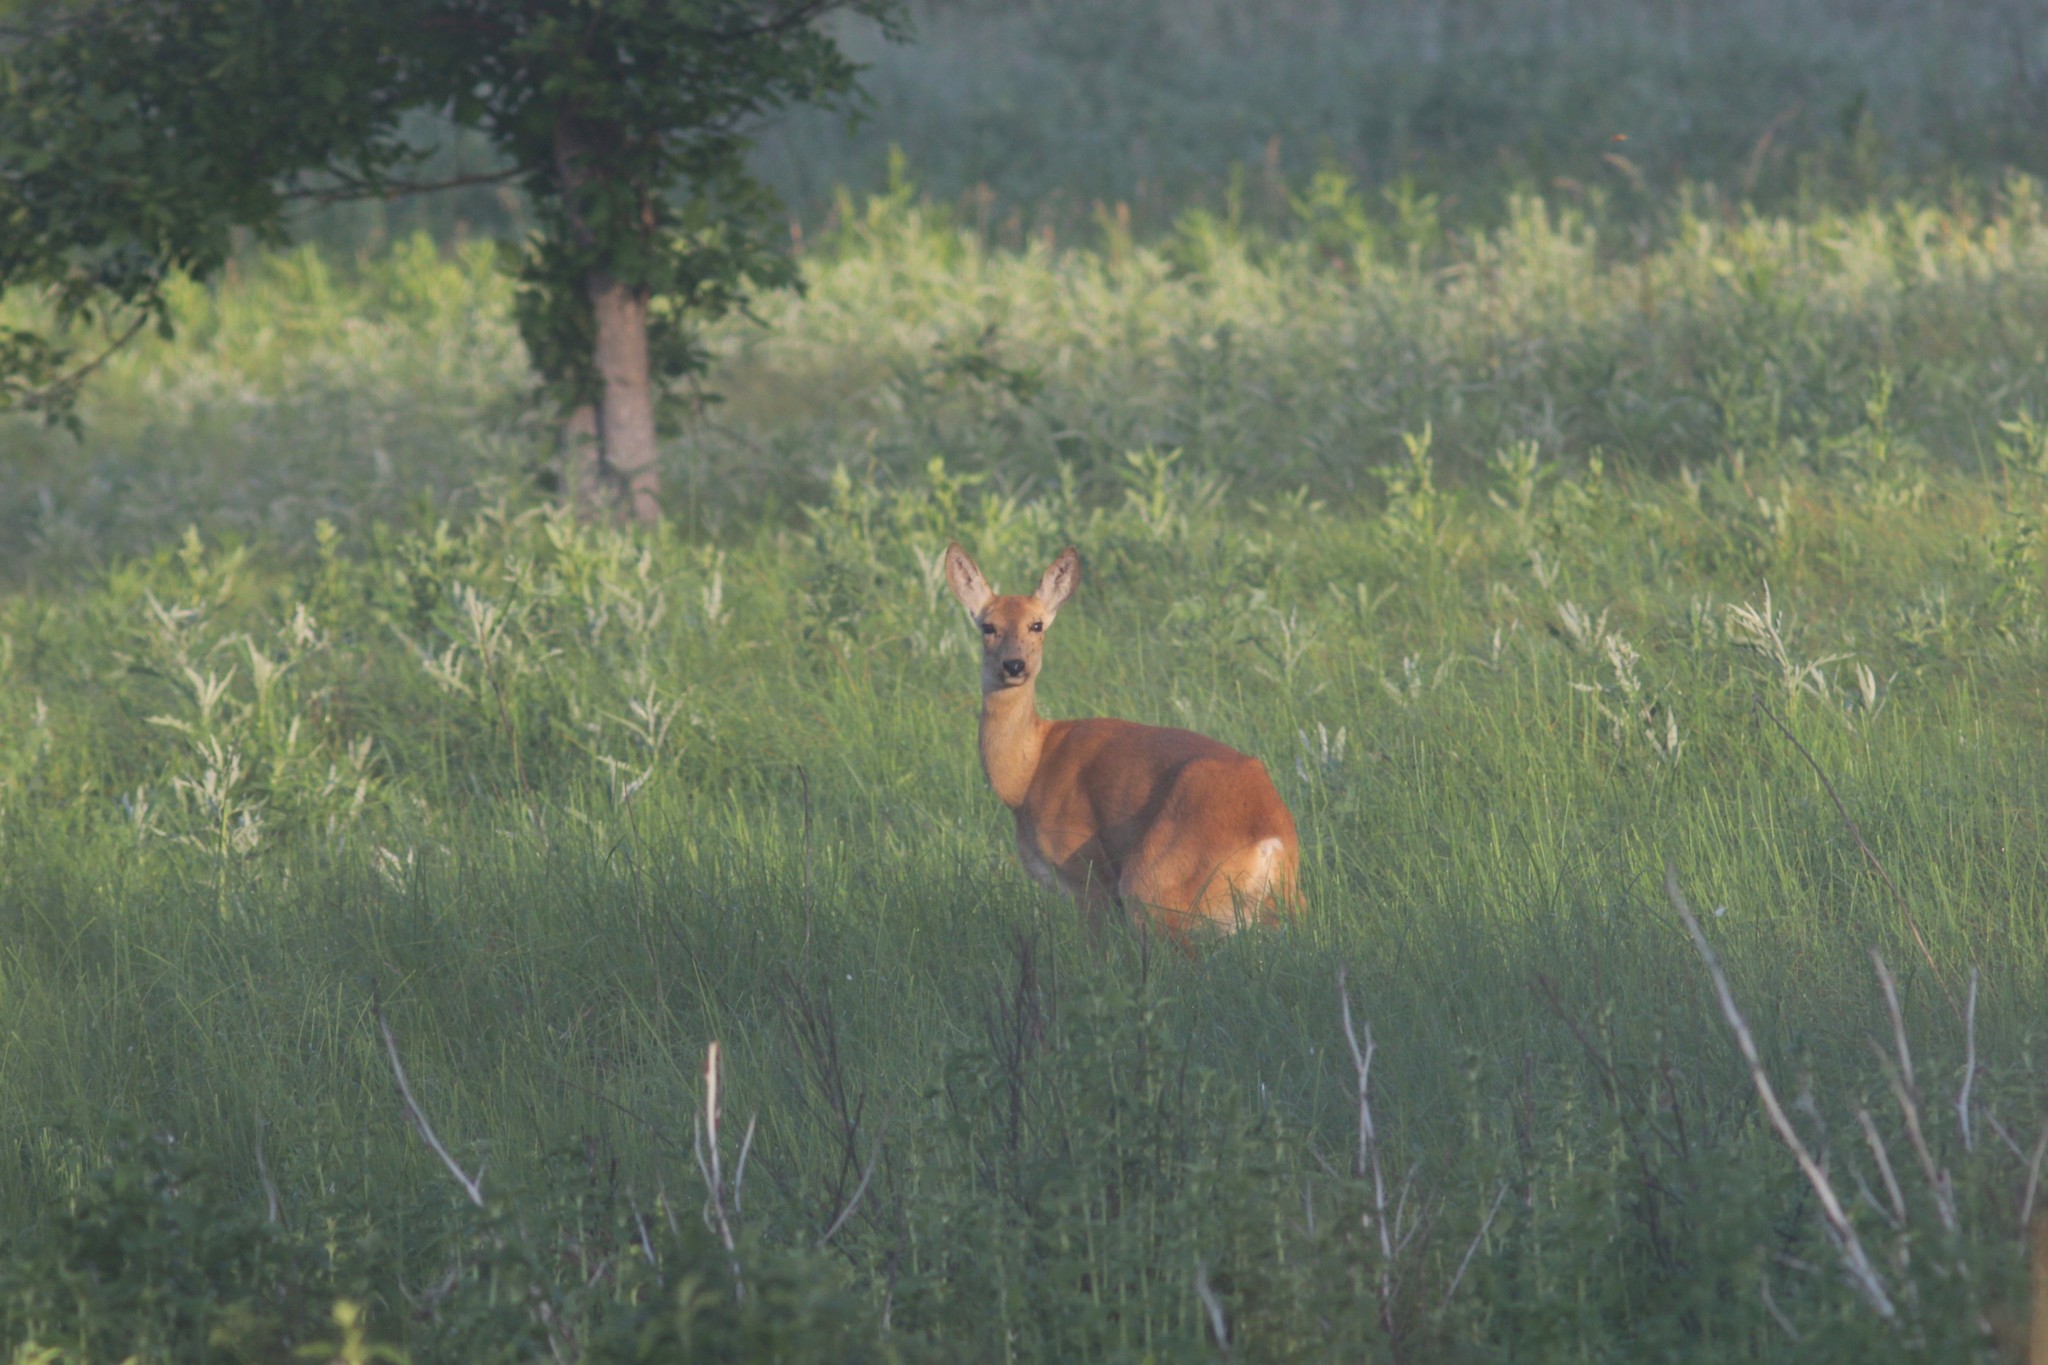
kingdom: Animalia
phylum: Chordata
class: Mammalia
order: Artiodactyla
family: Cervidae
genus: Capreolus
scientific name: Capreolus pygargus
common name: Siberian roe
